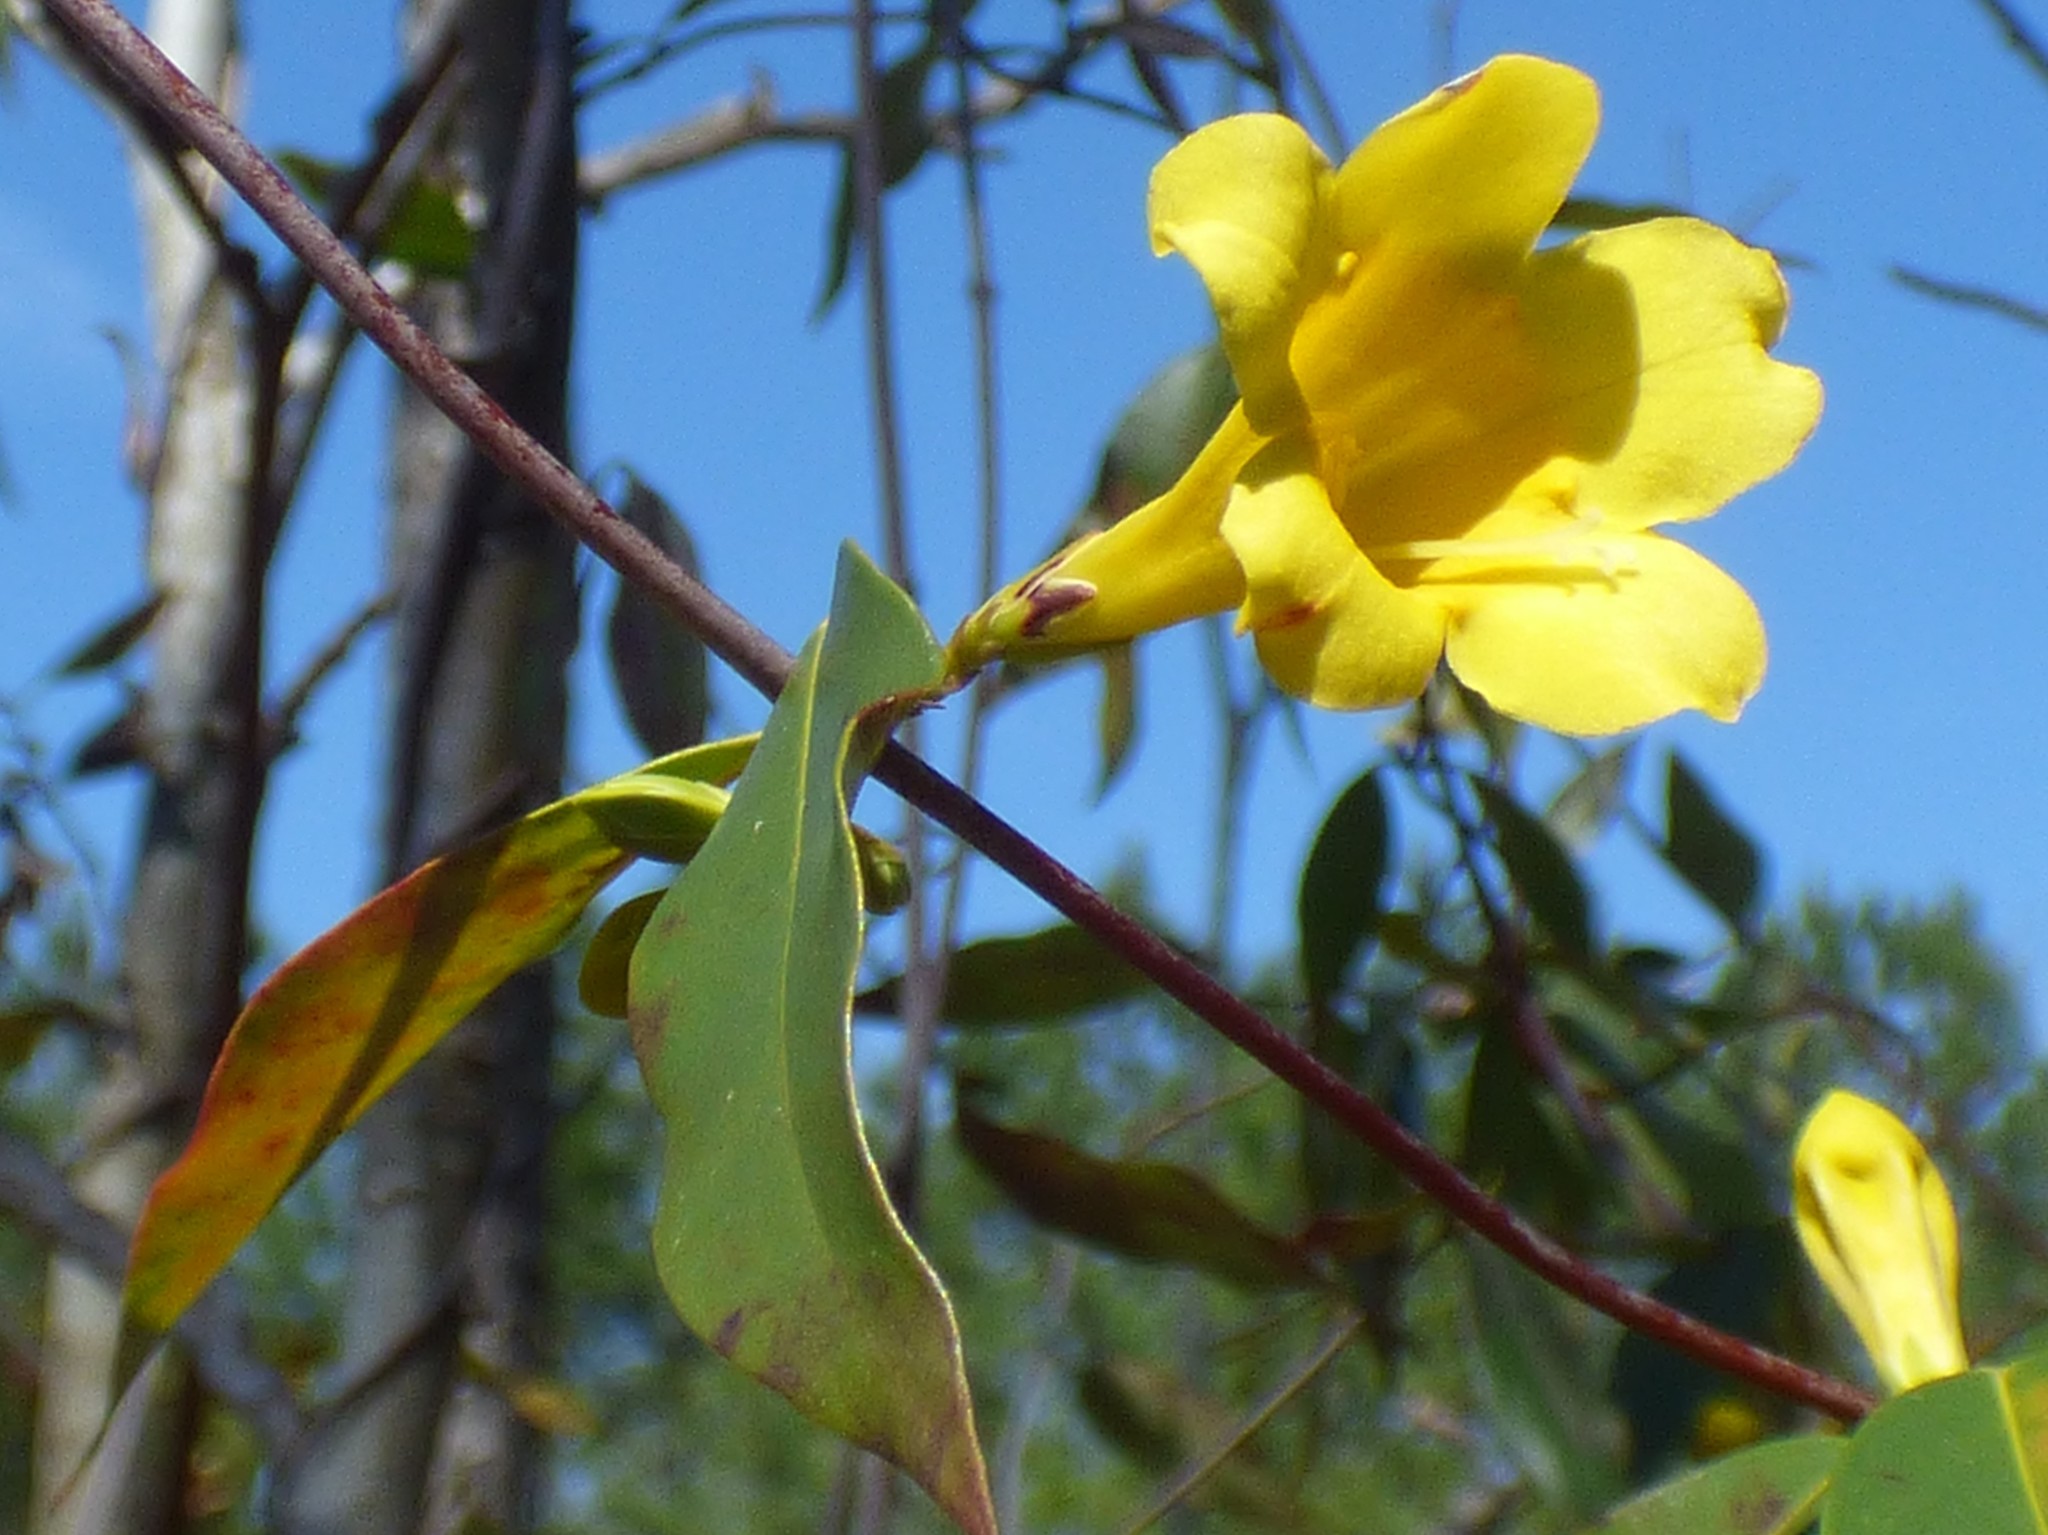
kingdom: Plantae
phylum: Tracheophyta
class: Magnoliopsida
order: Gentianales
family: Gelsemiaceae
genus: Gelsemium
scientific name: Gelsemium sempervirens
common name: Carolina-jasmine
